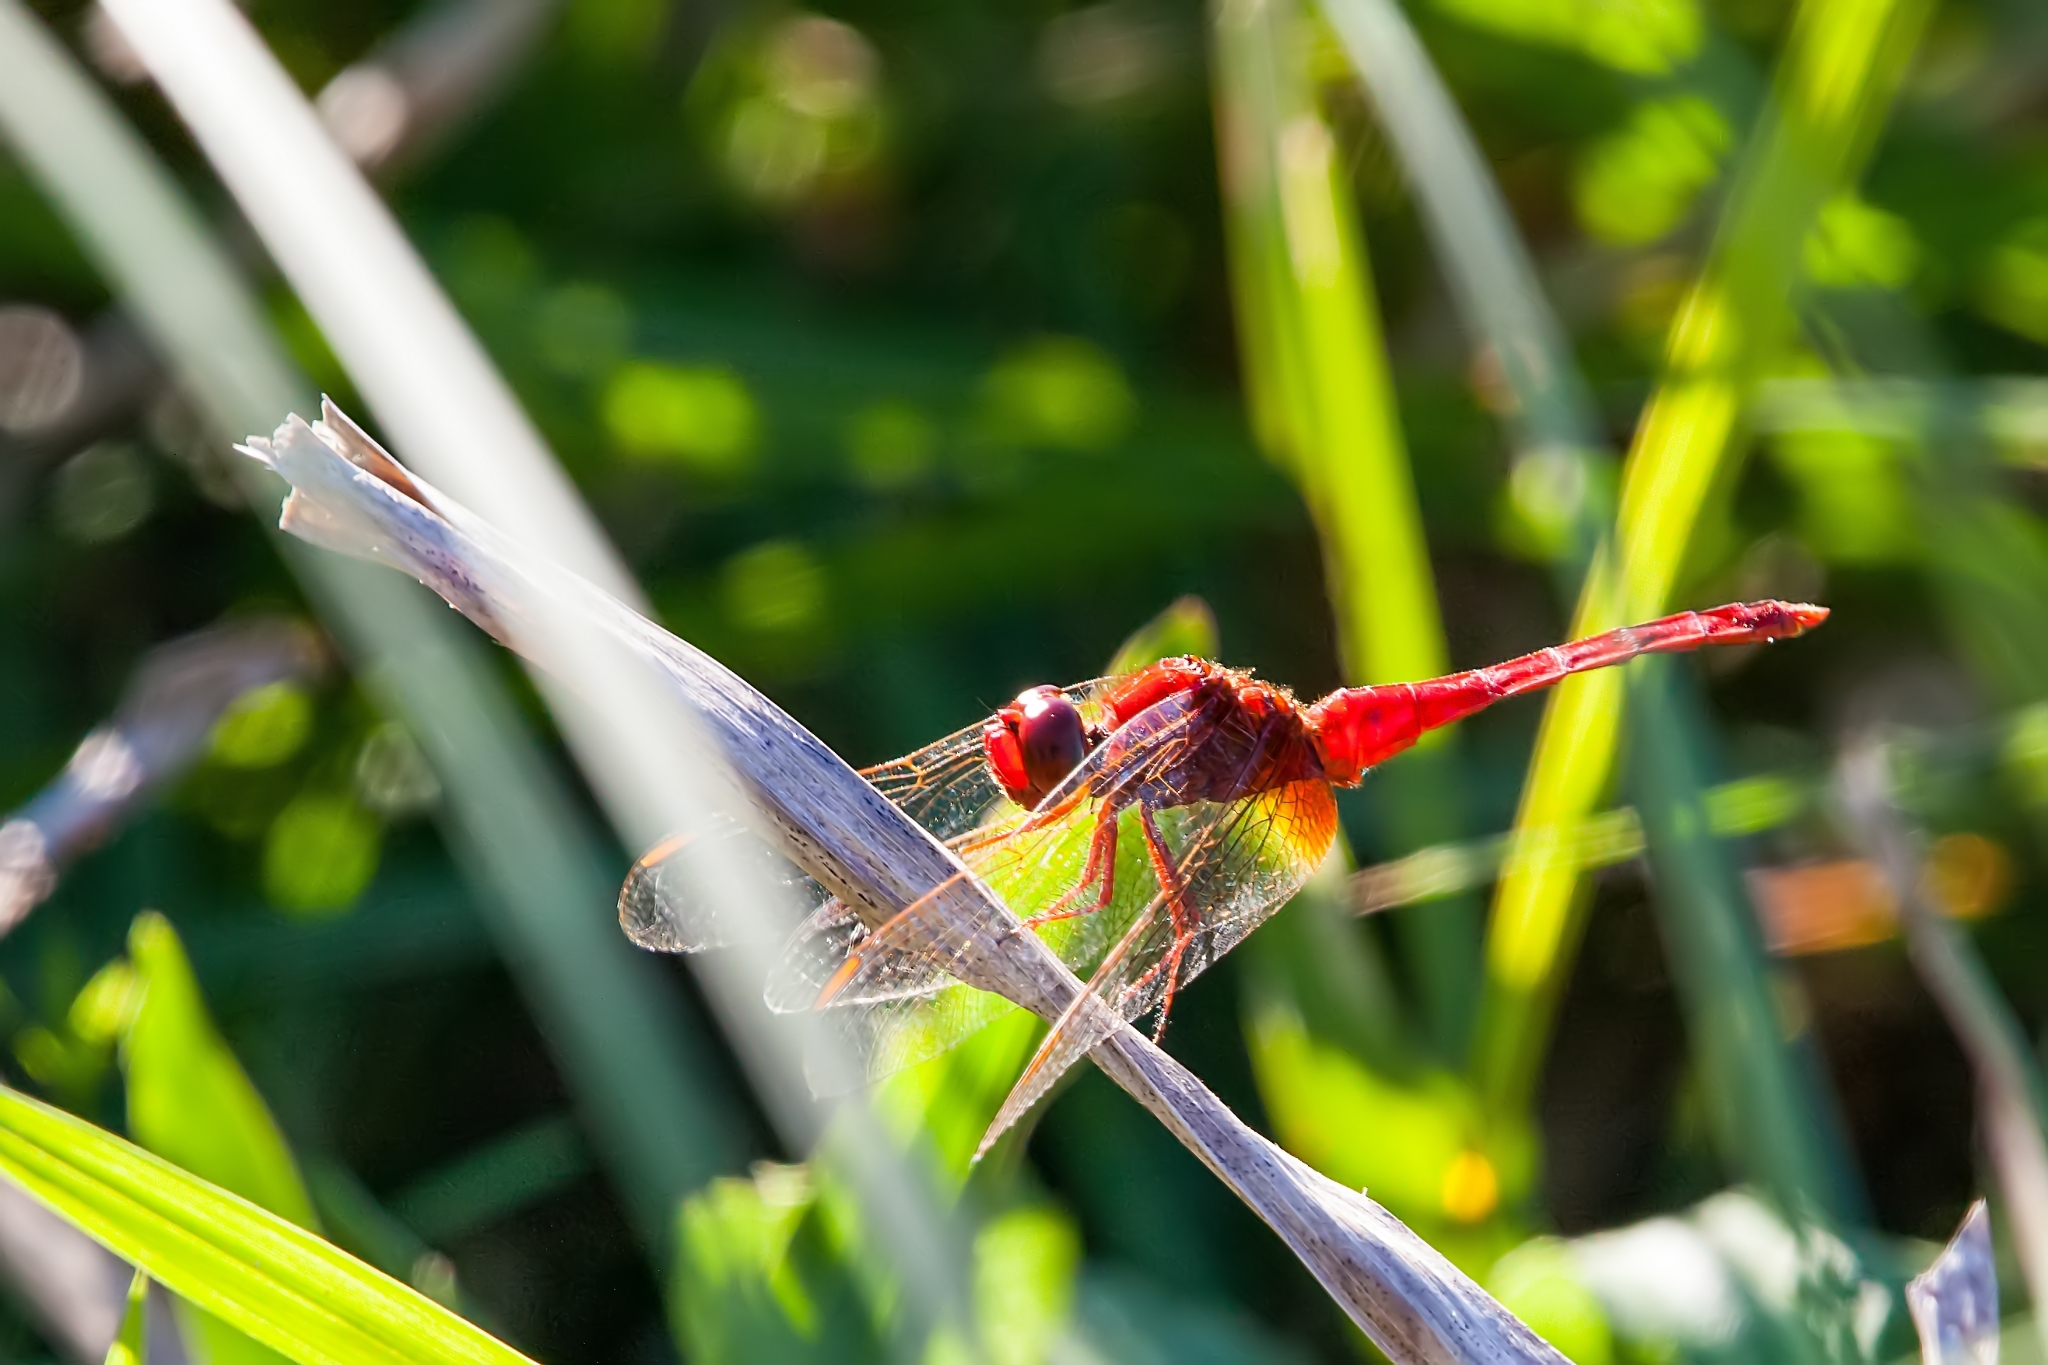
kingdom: Animalia
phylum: Arthropoda
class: Insecta
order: Odonata
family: Libellulidae
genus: Crocothemis
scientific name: Crocothemis servilia
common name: Scarlet skimmer
